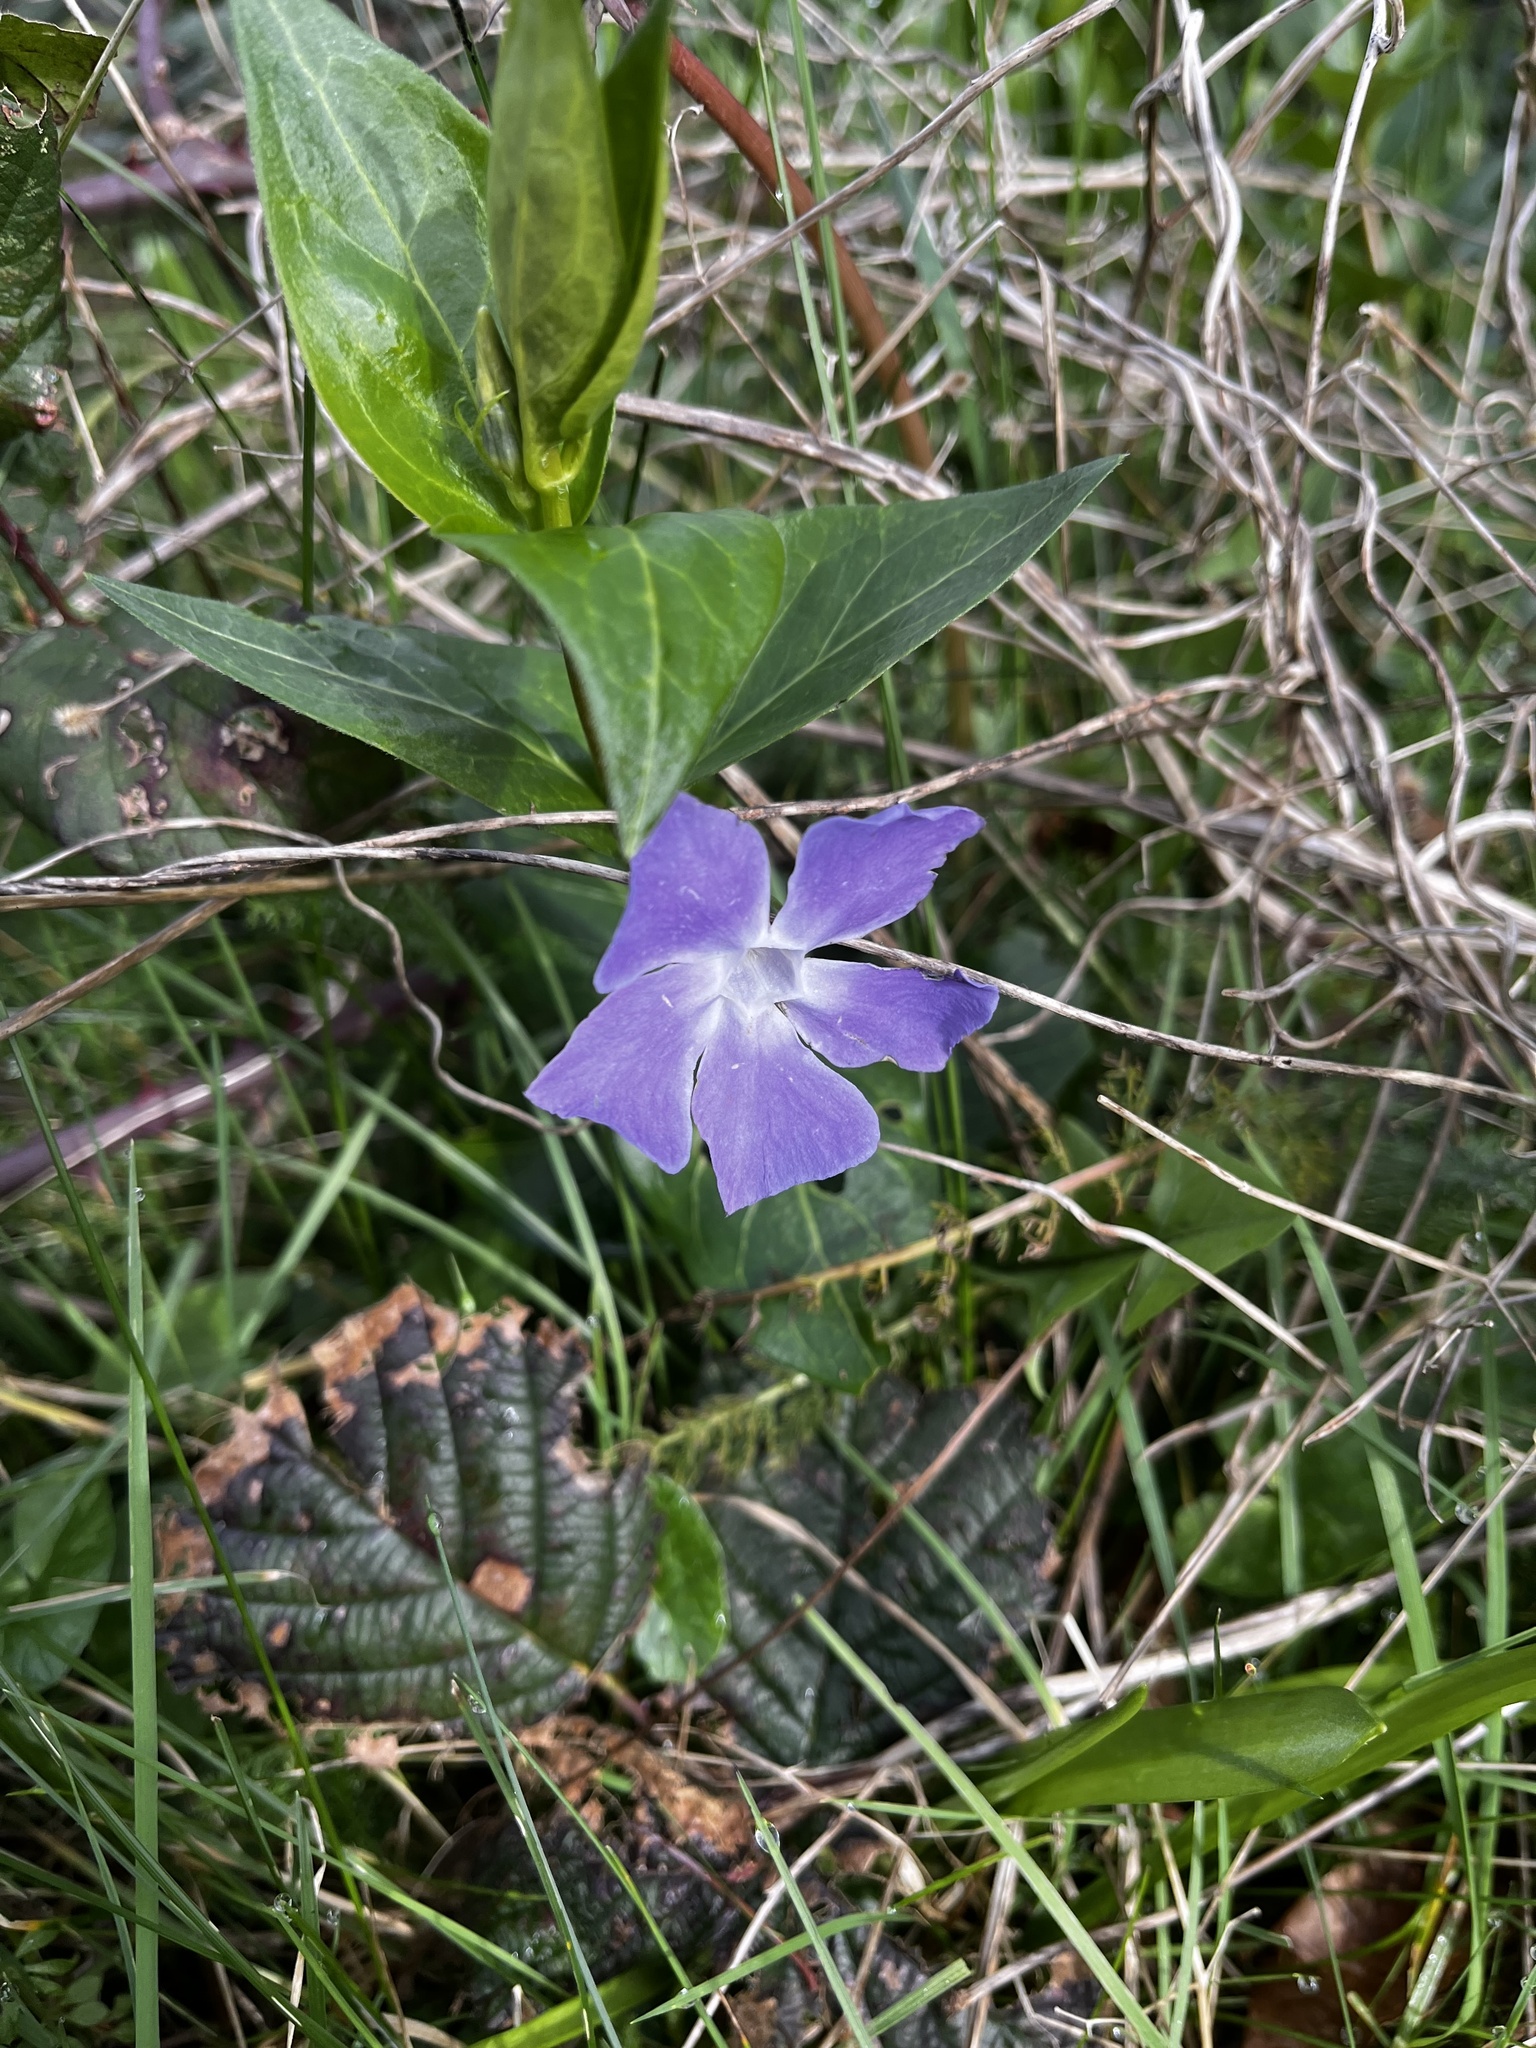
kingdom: Plantae
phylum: Tracheophyta
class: Magnoliopsida
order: Gentianales
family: Apocynaceae
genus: Vinca
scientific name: Vinca major
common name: Greater periwinkle
